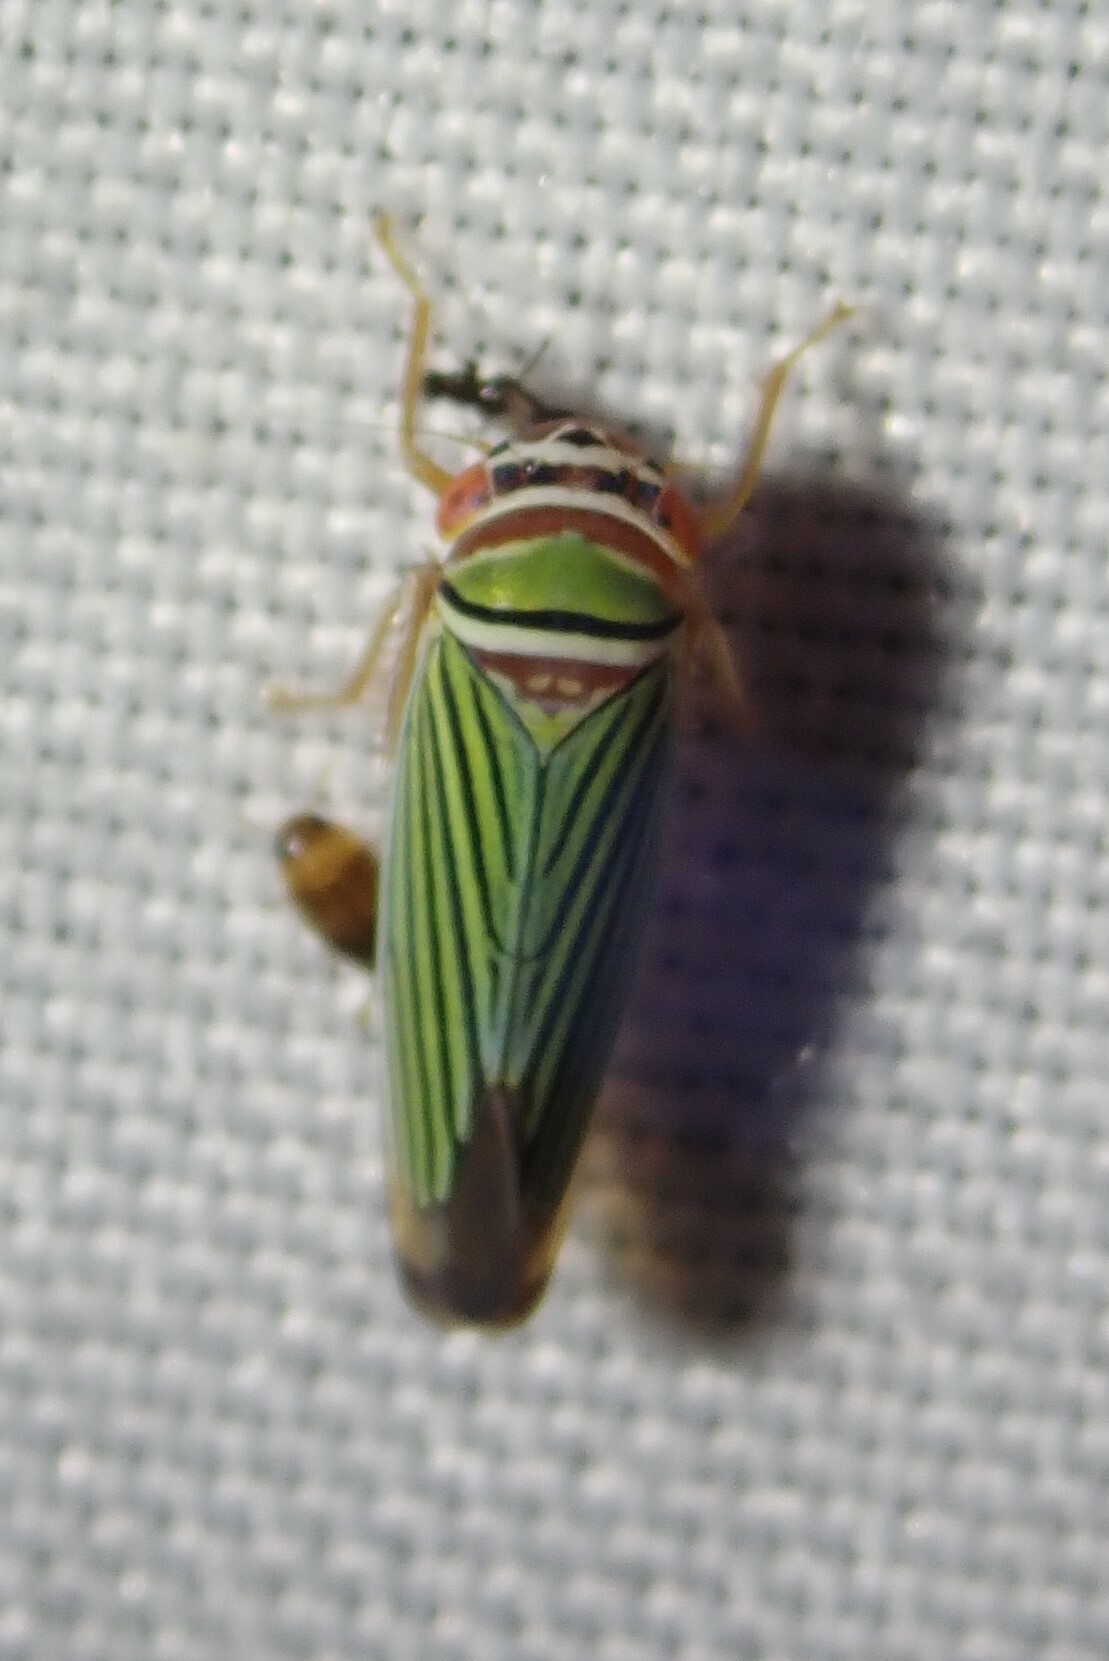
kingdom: Animalia
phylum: Arthropoda
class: Insecta
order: Hemiptera
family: Cicadellidae
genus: Tylozygus
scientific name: Tylozygus fuscolineellus
